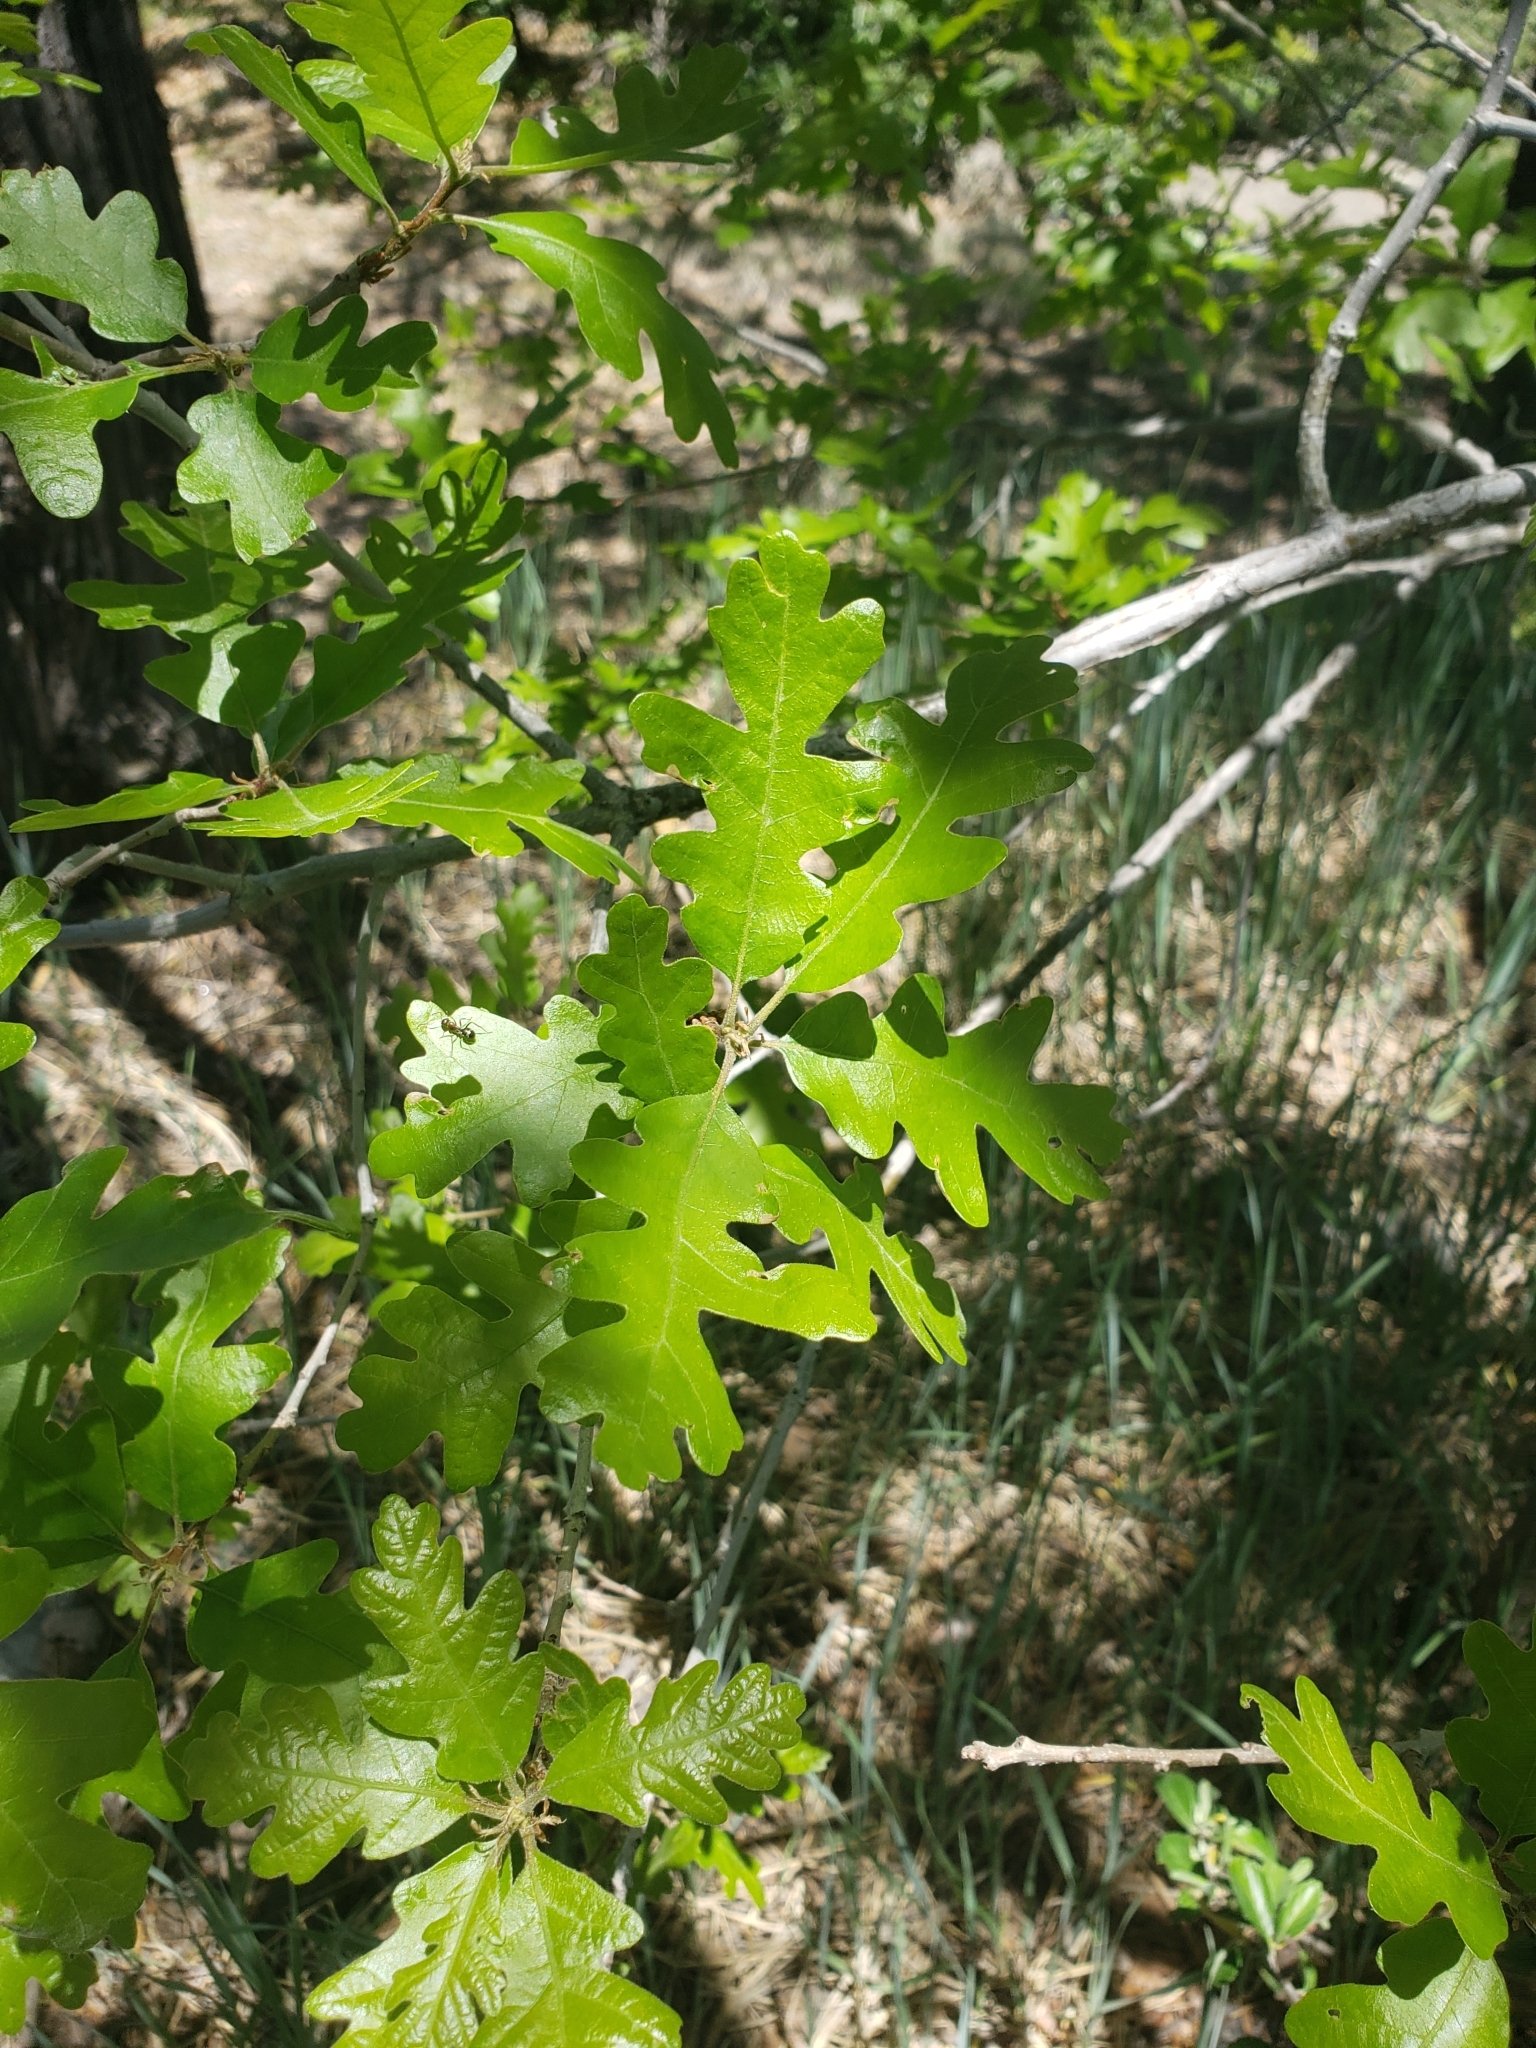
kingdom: Plantae
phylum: Tracheophyta
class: Magnoliopsida
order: Fagales
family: Fagaceae
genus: Quercus
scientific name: Quercus gambelii
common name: Gambel oak
